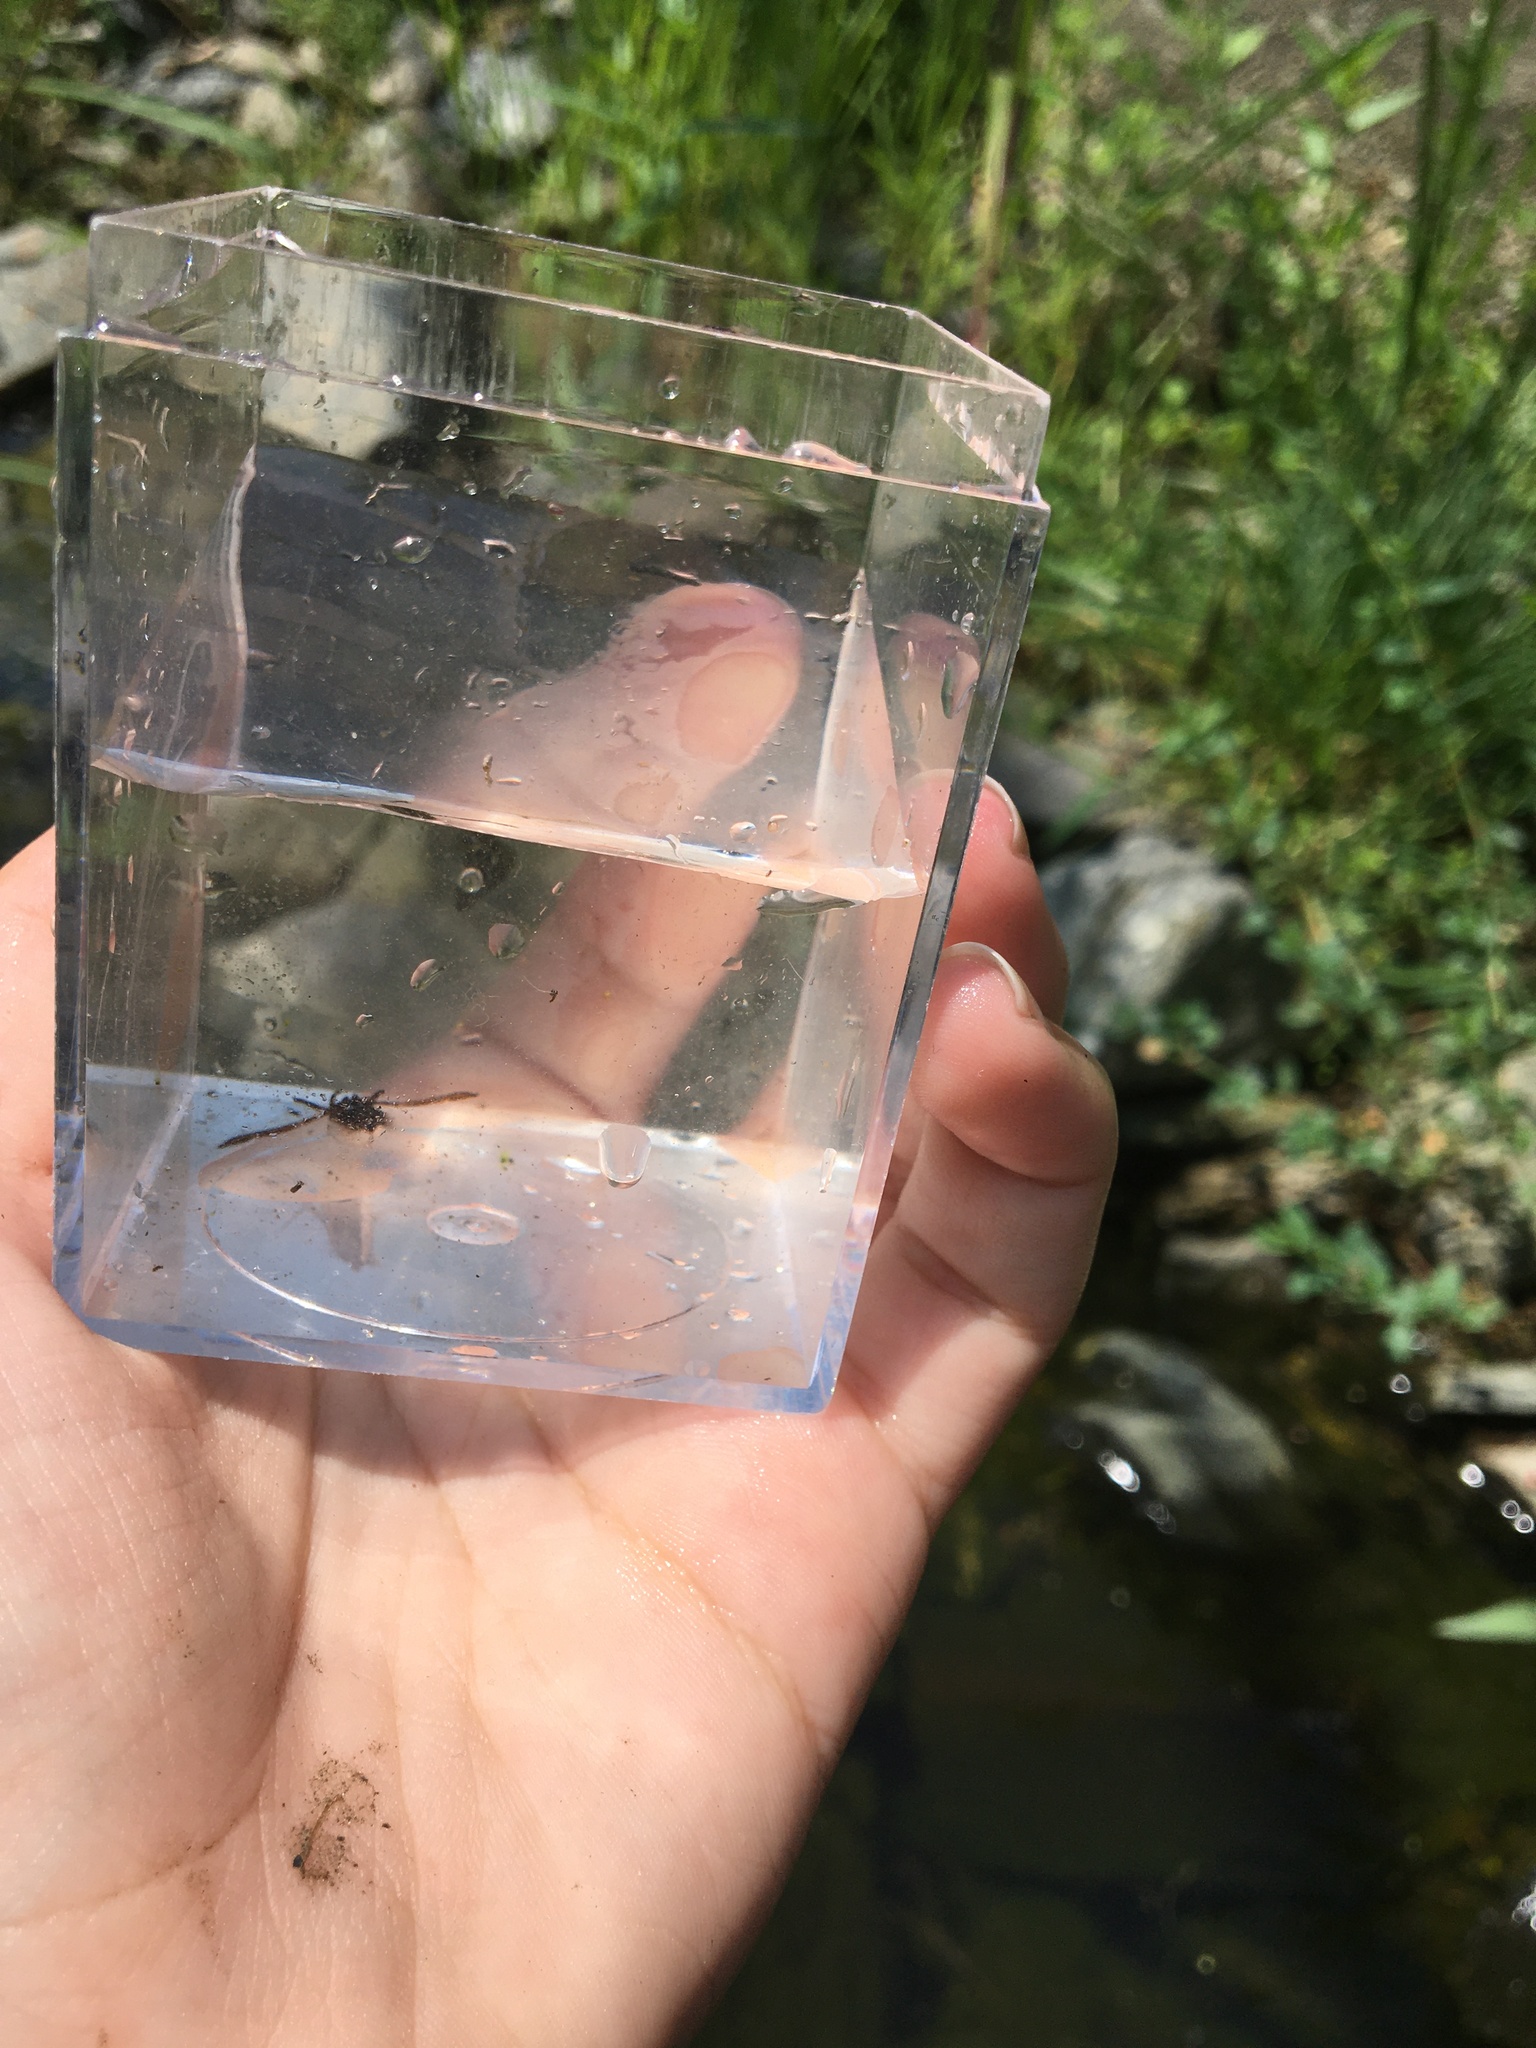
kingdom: Animalia
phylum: Arthropoda
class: Insecta
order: Hemiptera
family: Notonectidae
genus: Notonecta
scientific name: Notonecta irrorata
